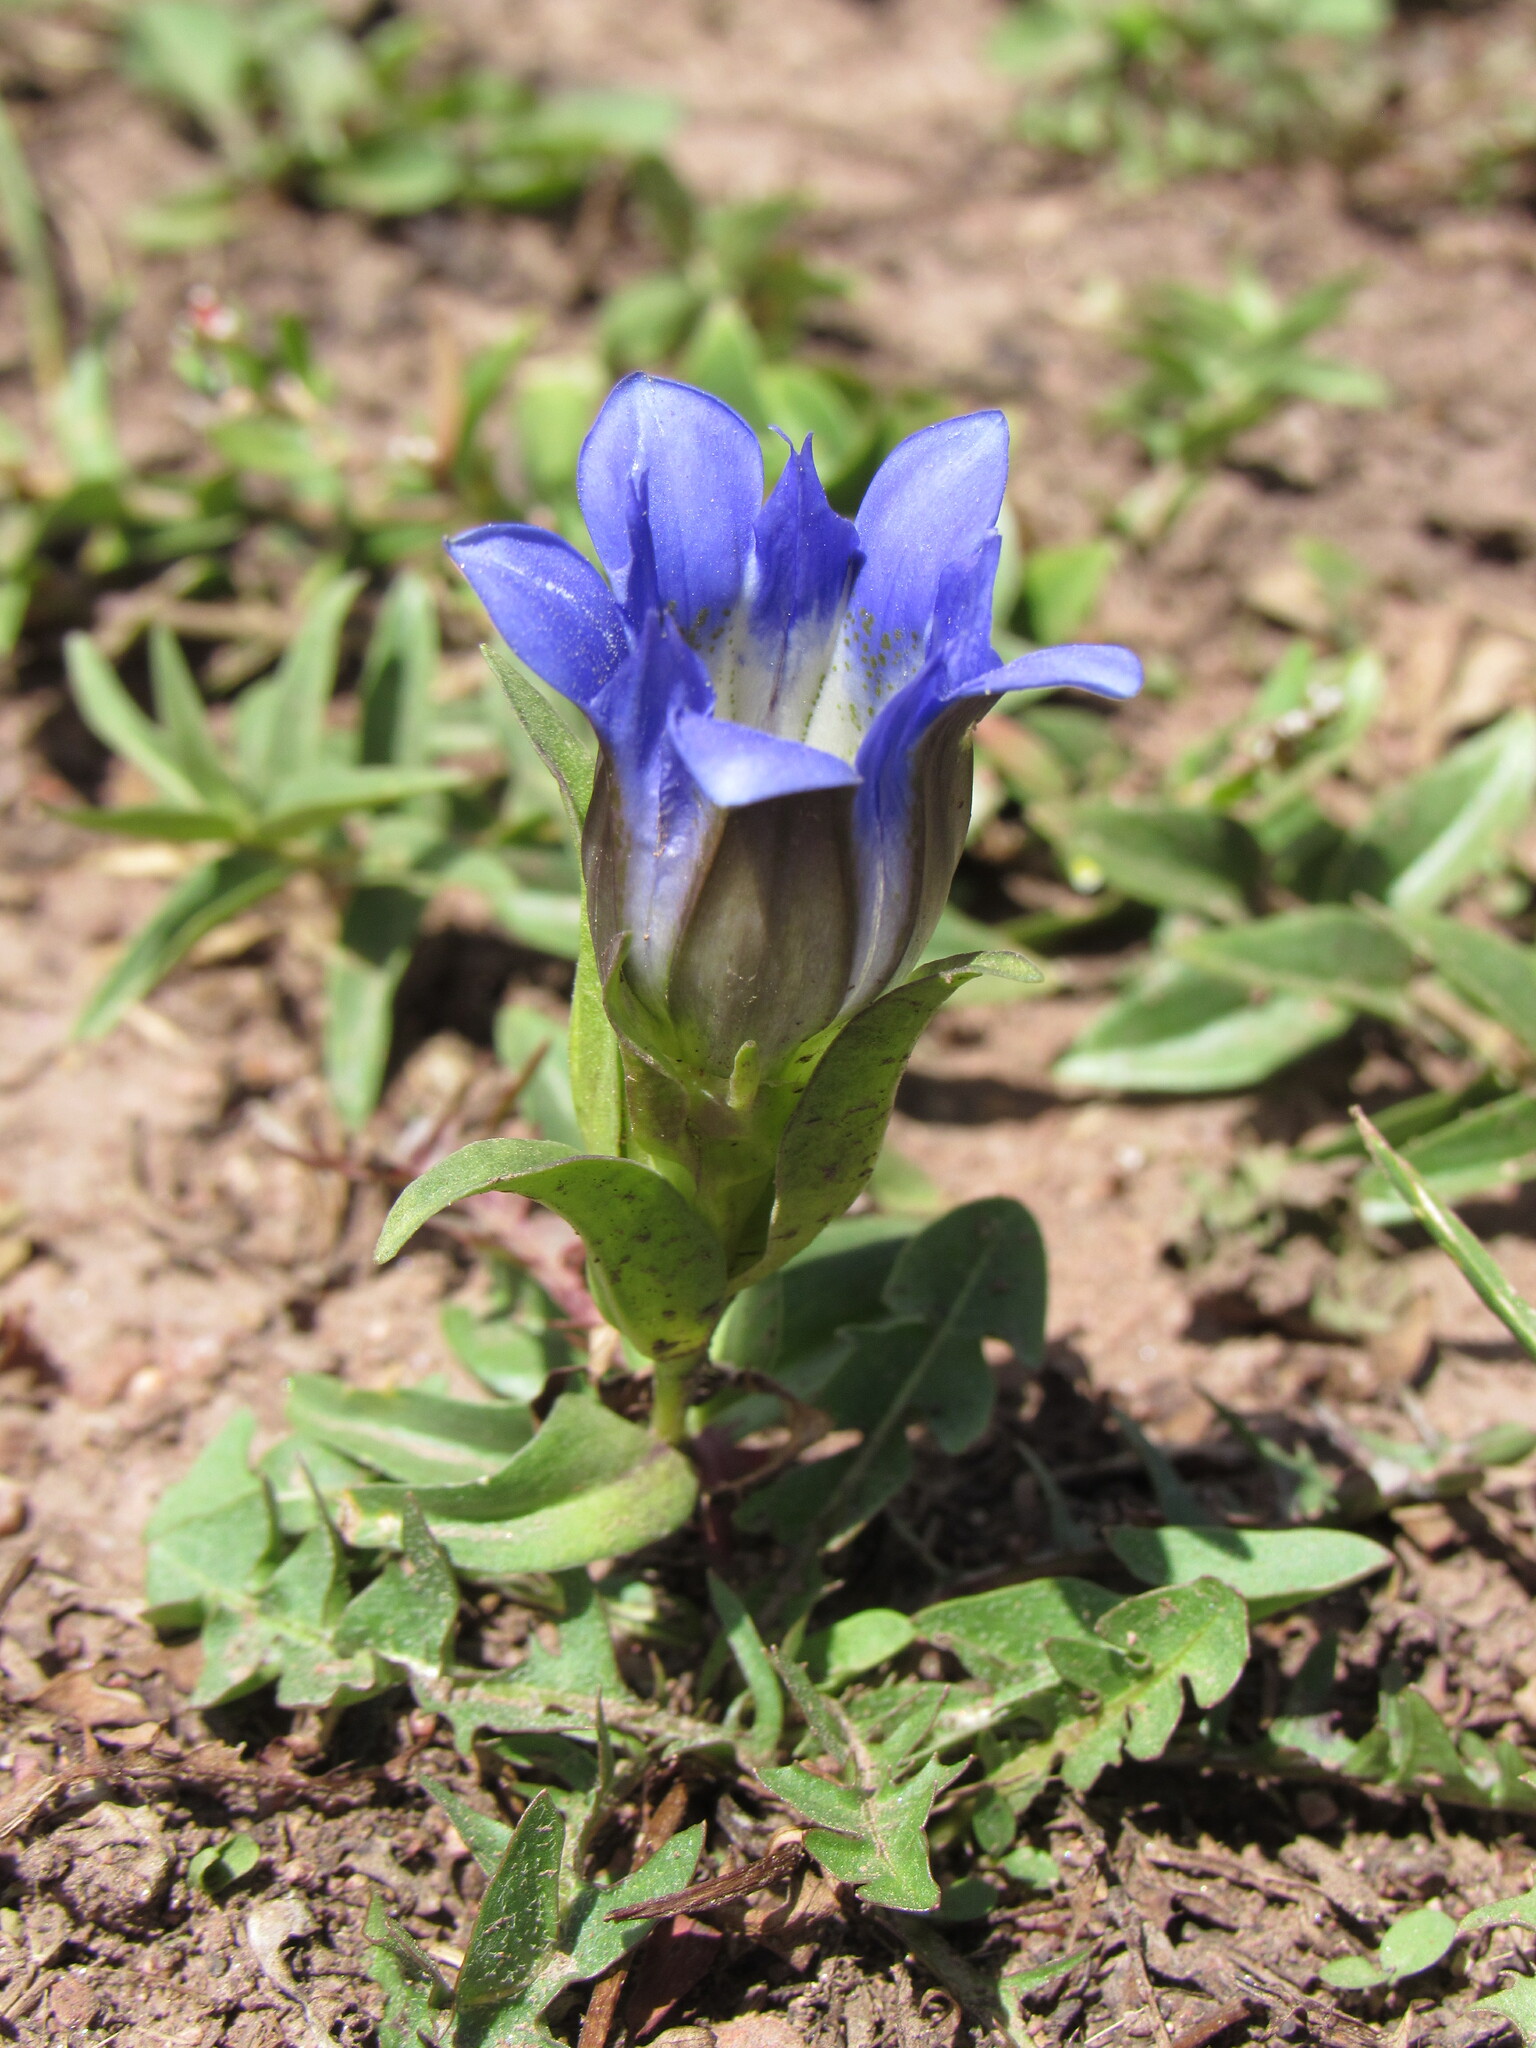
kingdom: Plantae
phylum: Tracheophyta
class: Magnoliopsida
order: Gentianales
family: Gentianaceae
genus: Gentiana
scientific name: Gentiana parryi
